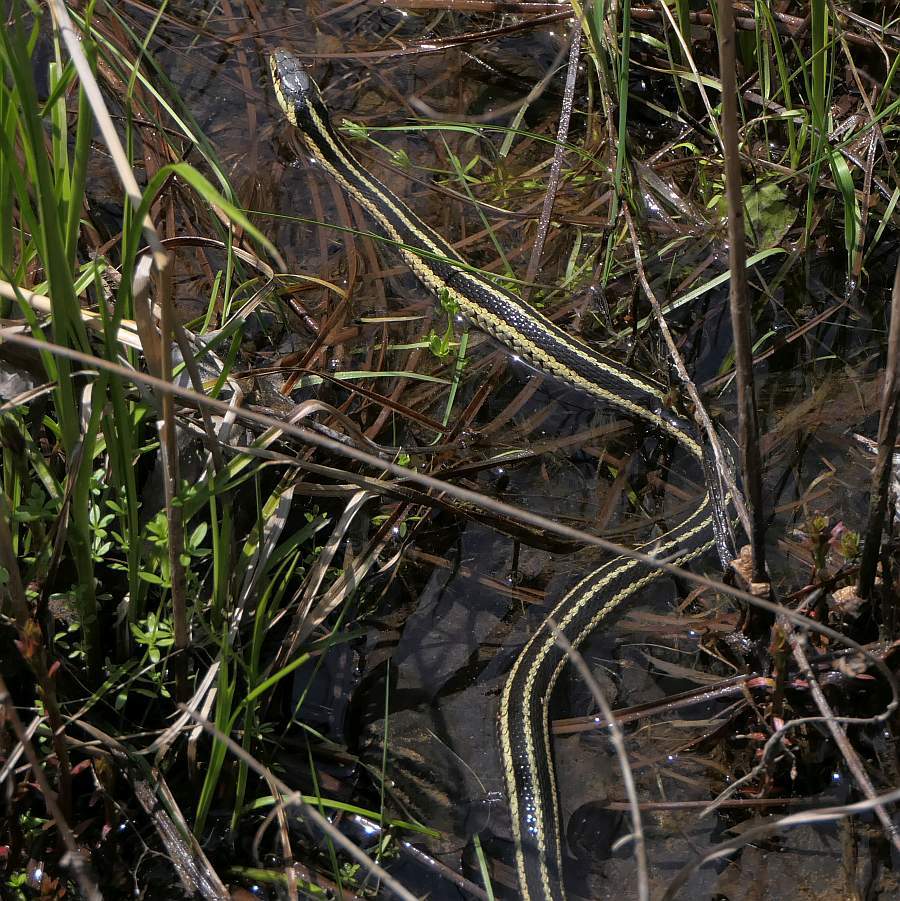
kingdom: Animalia
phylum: Chordata
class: Squamata
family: Colubridae
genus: Thamnophis
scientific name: Thamnophis sirtalis
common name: Common garter snake
